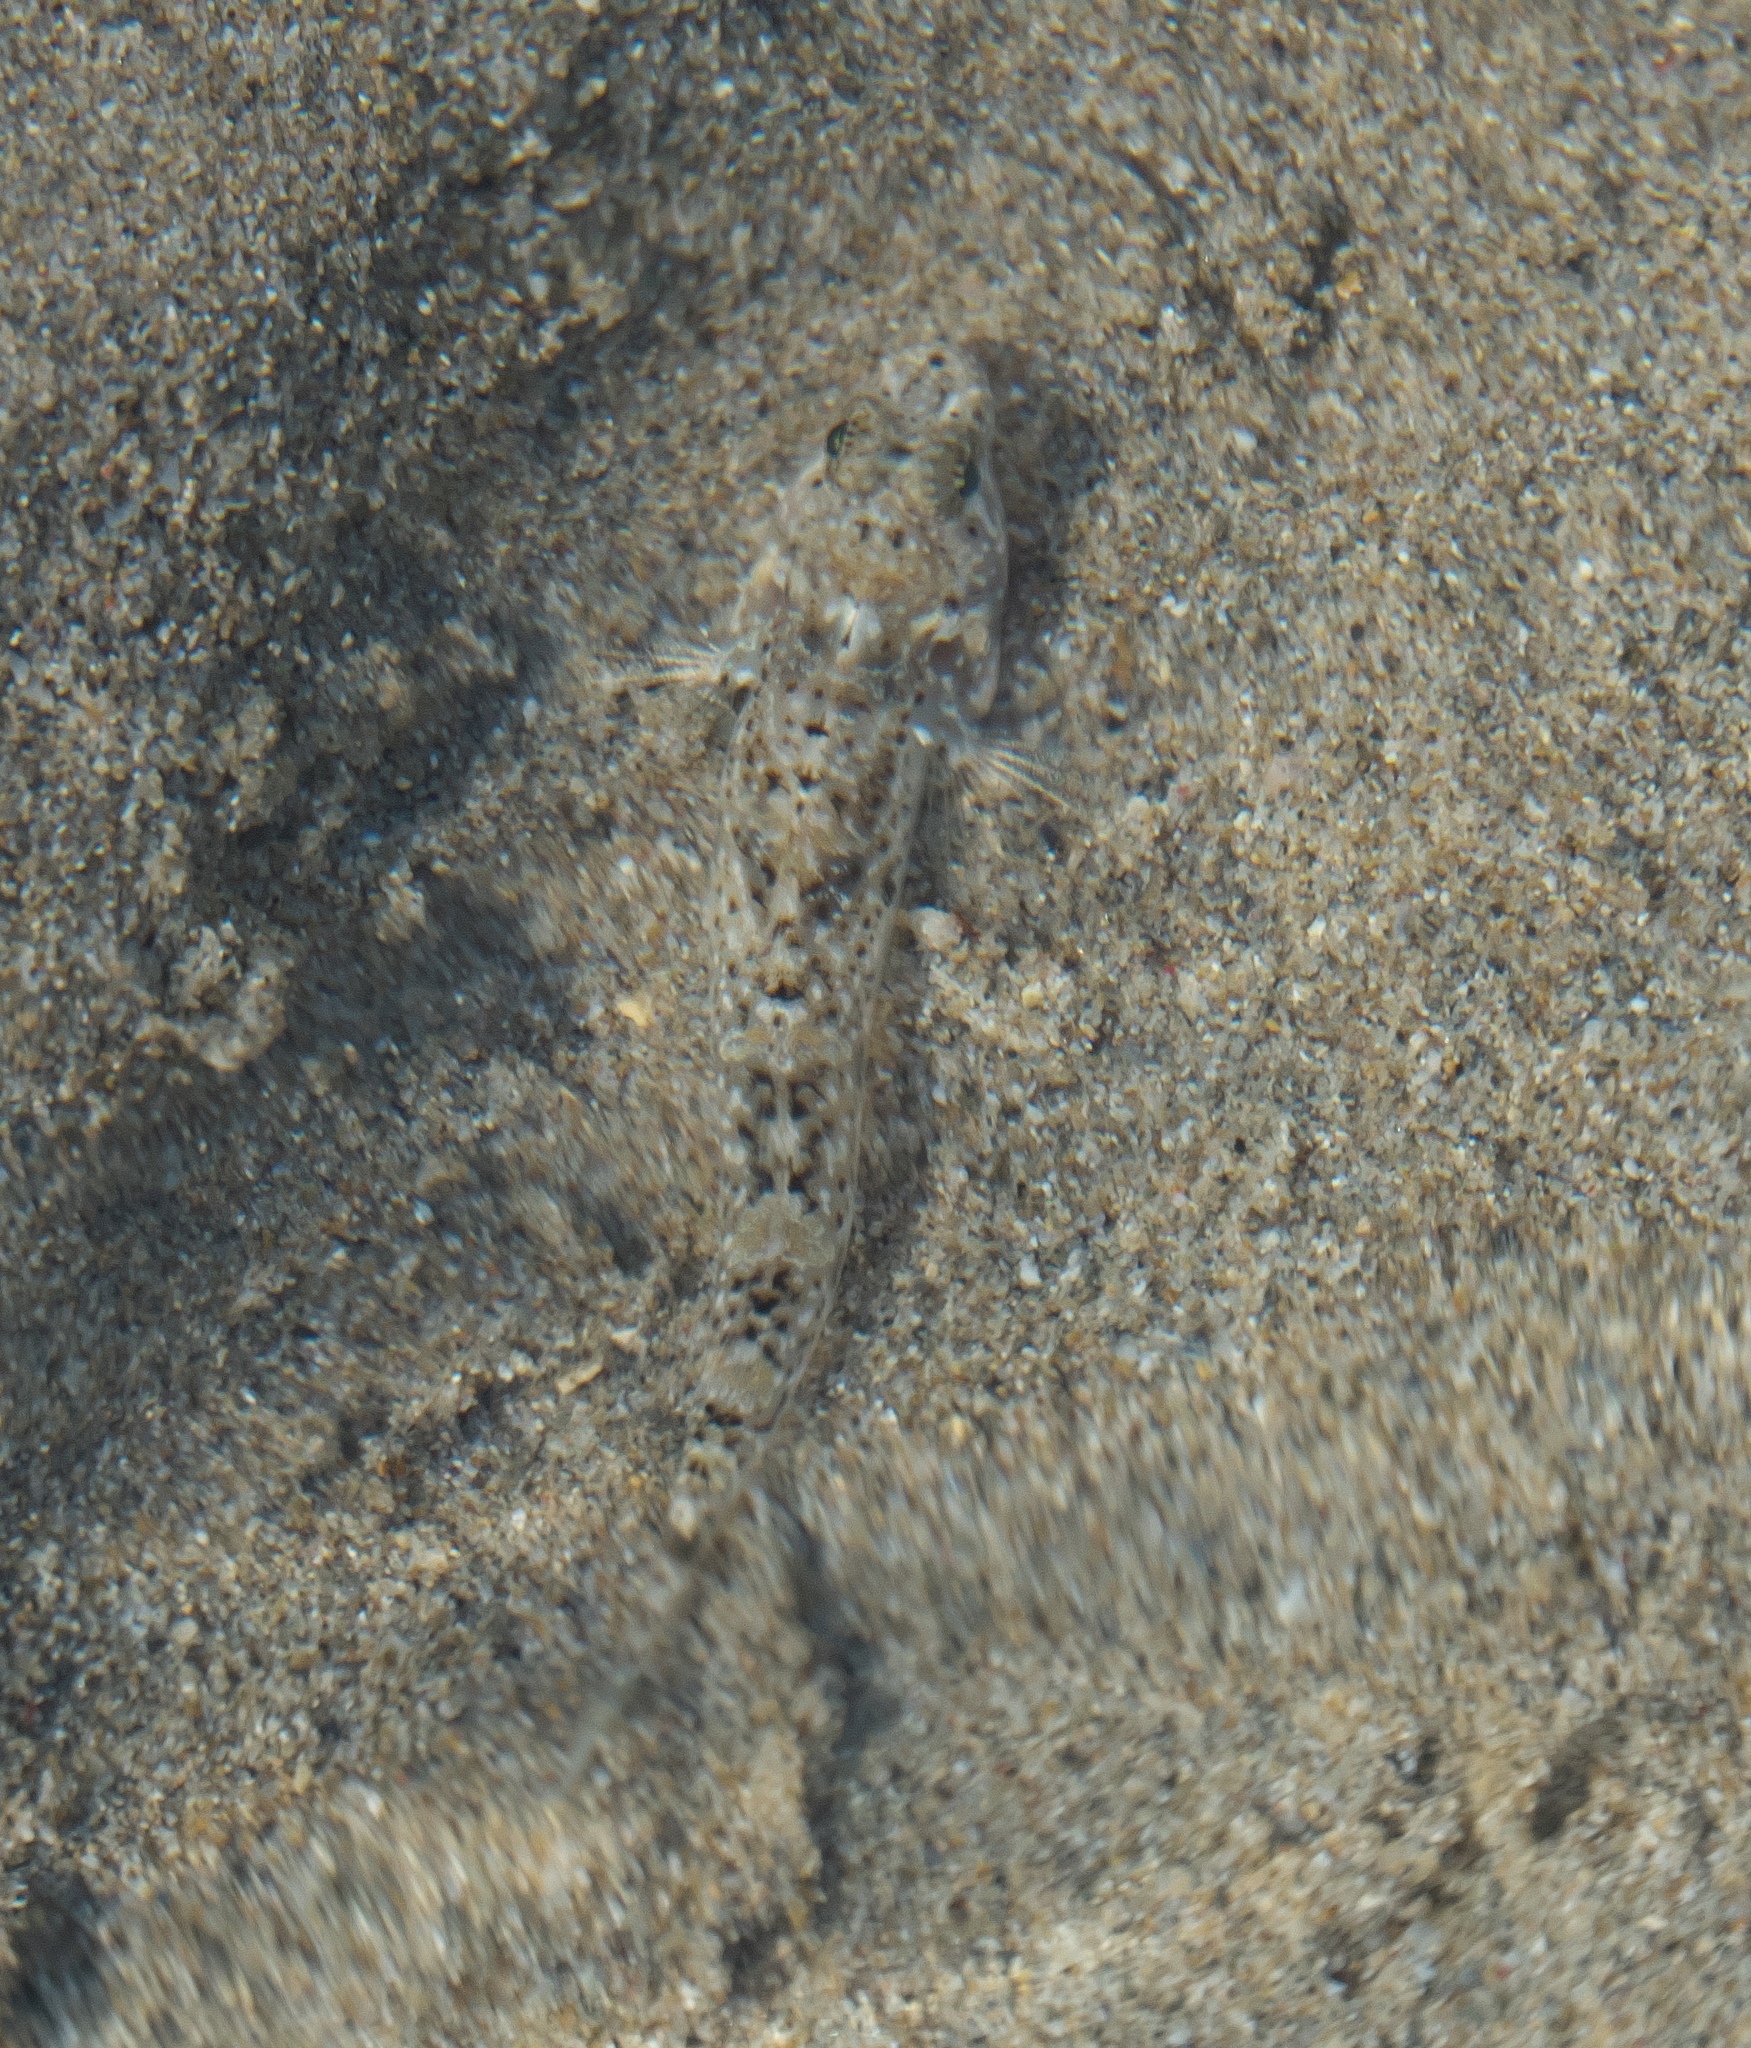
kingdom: Animalia
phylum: Chordata
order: Perciformes
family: Gobiidae
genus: Silhouettea
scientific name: Silhouettea hoesei
